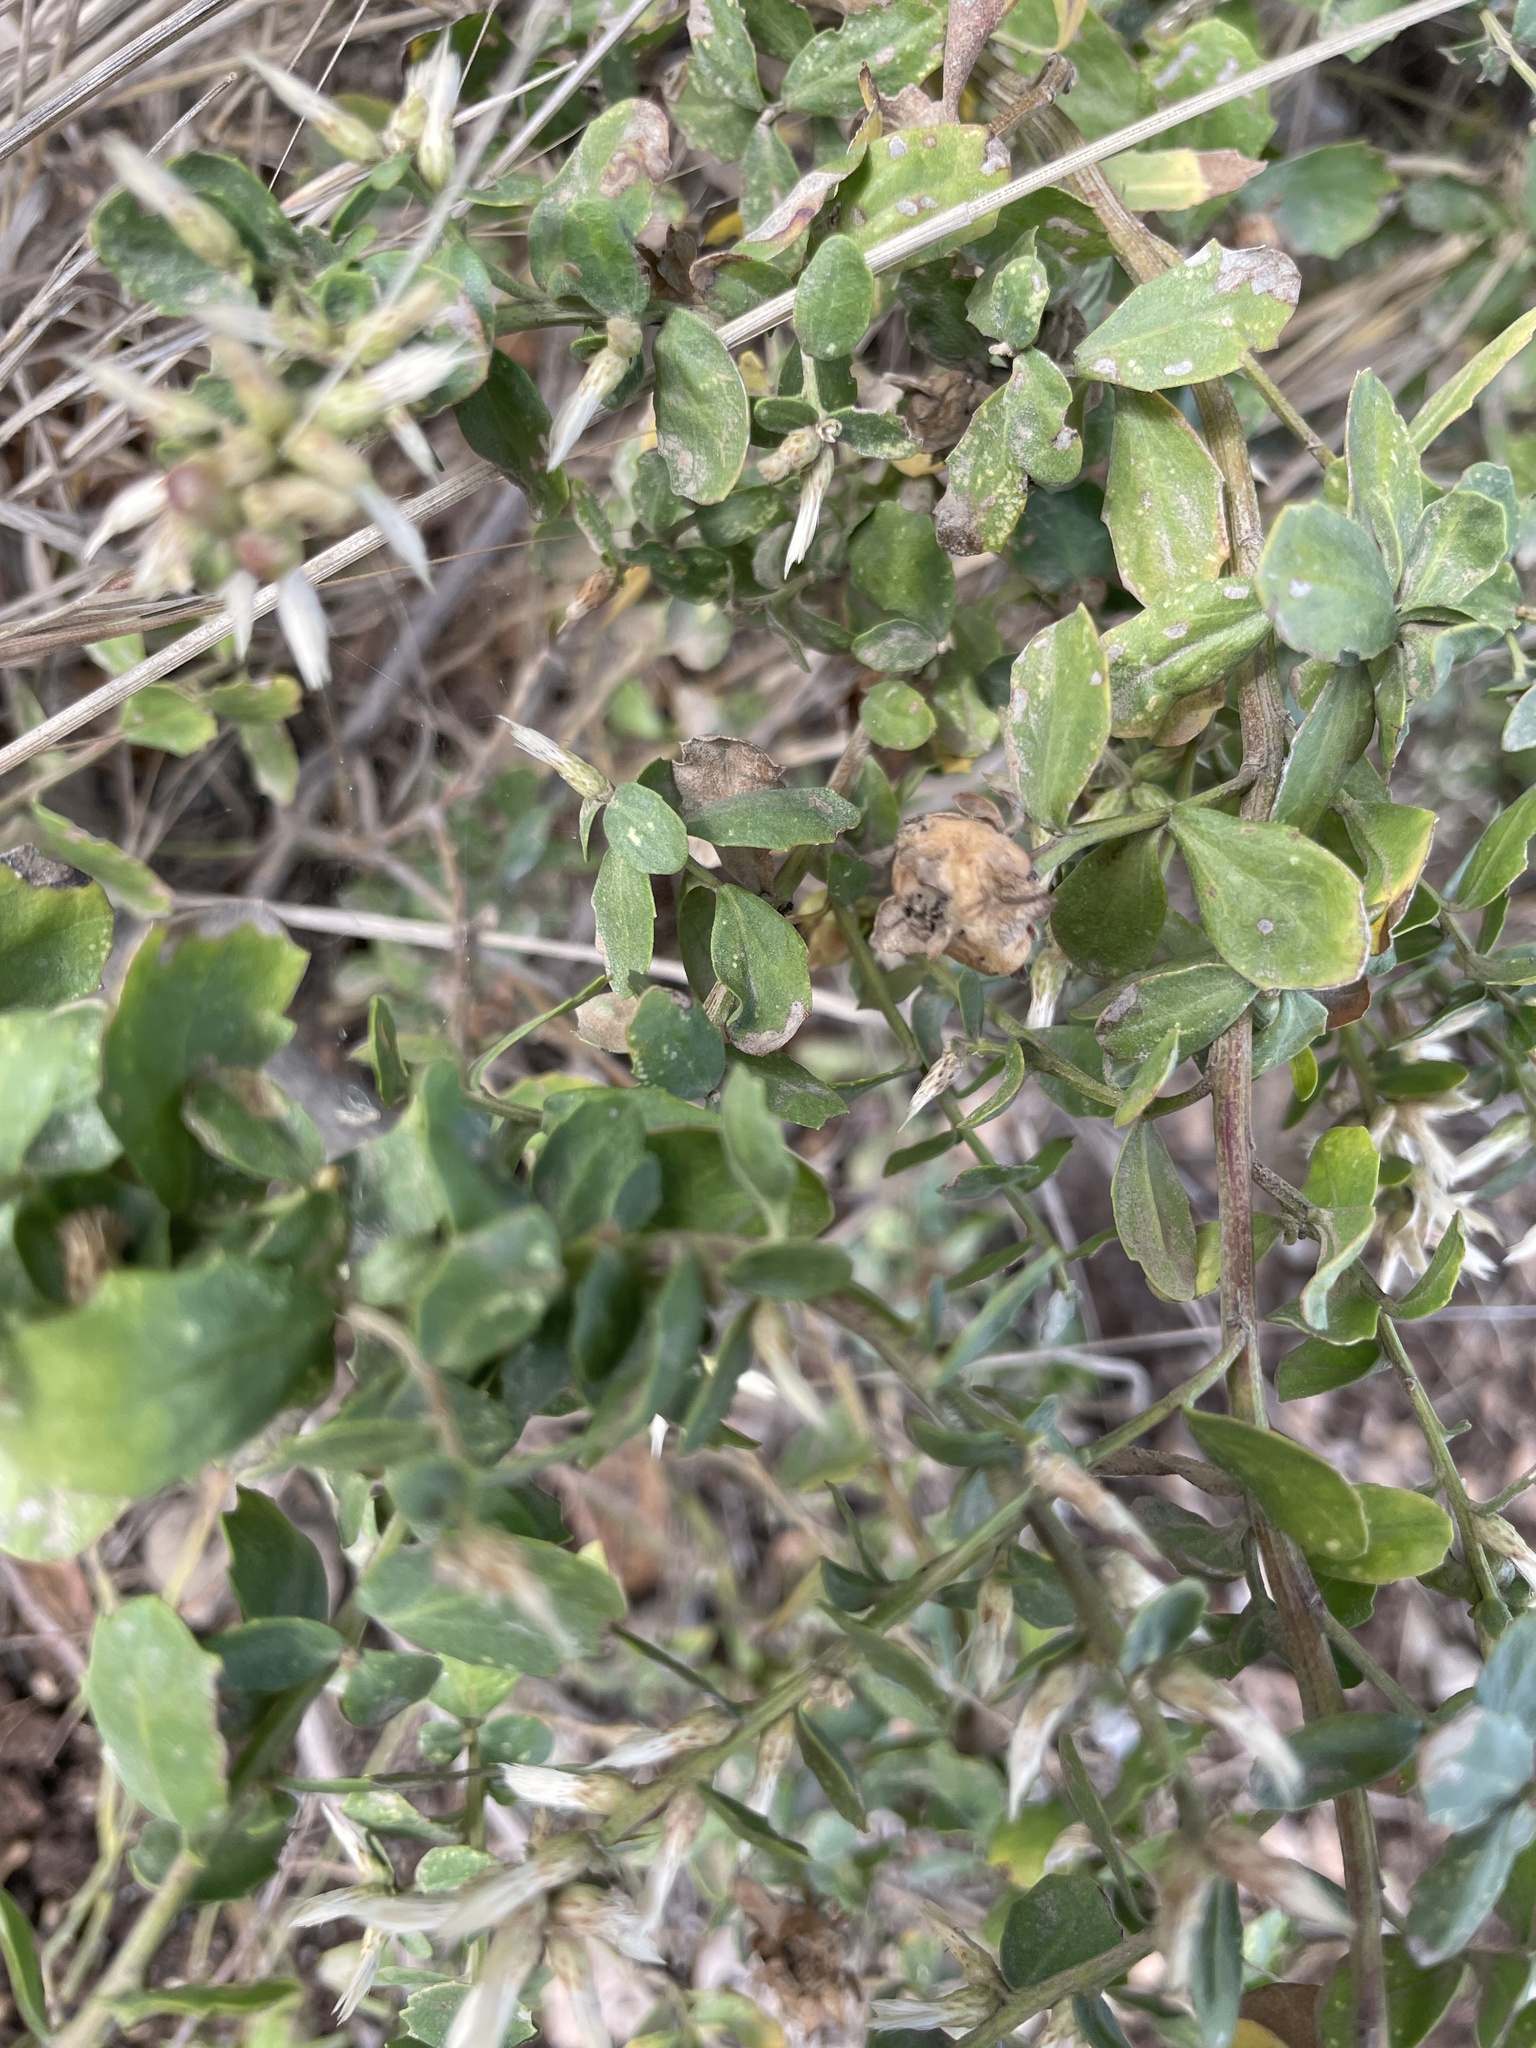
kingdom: Animalia
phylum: Arthropoda
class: Insecta
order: Diptera
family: Cecidomyiidae
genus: Rhopalomyia
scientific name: Rhopalomyia californica
